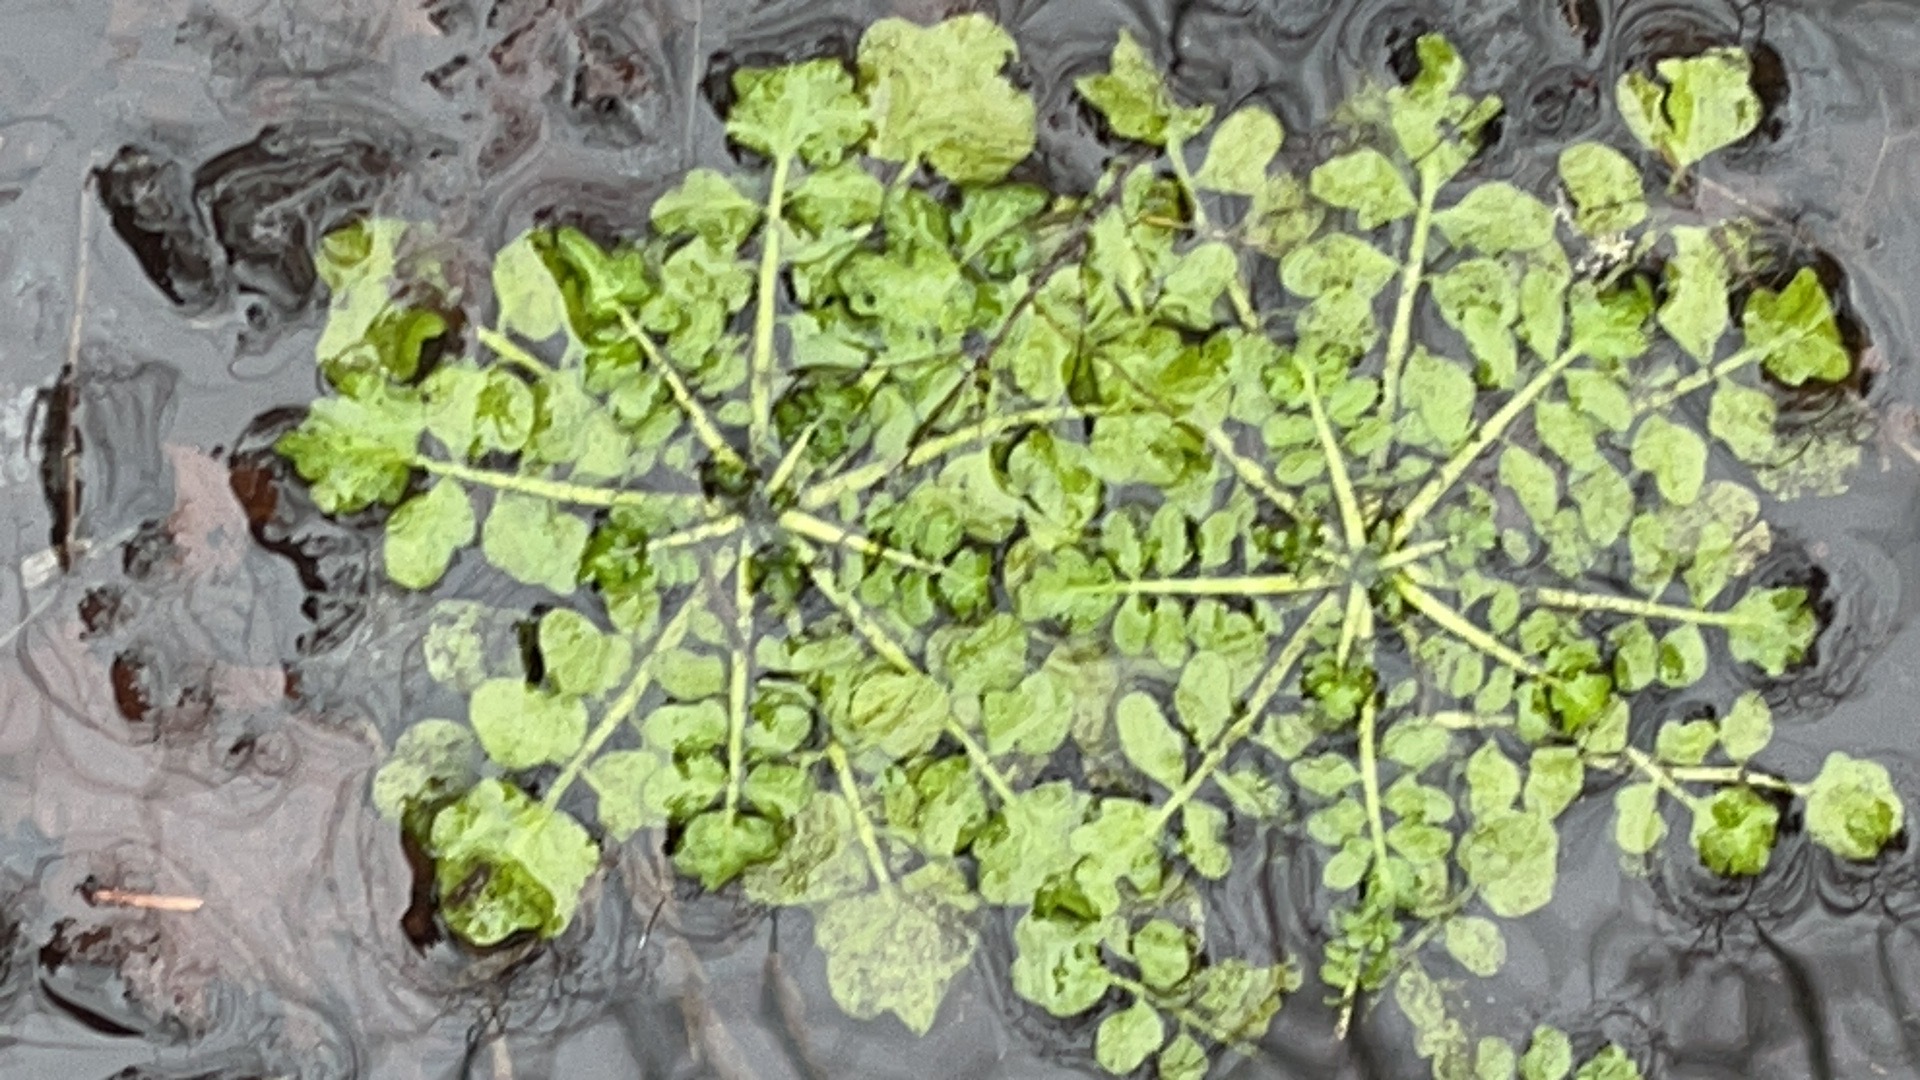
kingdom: Plantae
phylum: Tracheophyta
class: Magnoliopsida
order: Brassicales
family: Brassicaceae
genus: Cardamine
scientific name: Cardamine pensylvanica
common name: Pennsylvania bittercress
